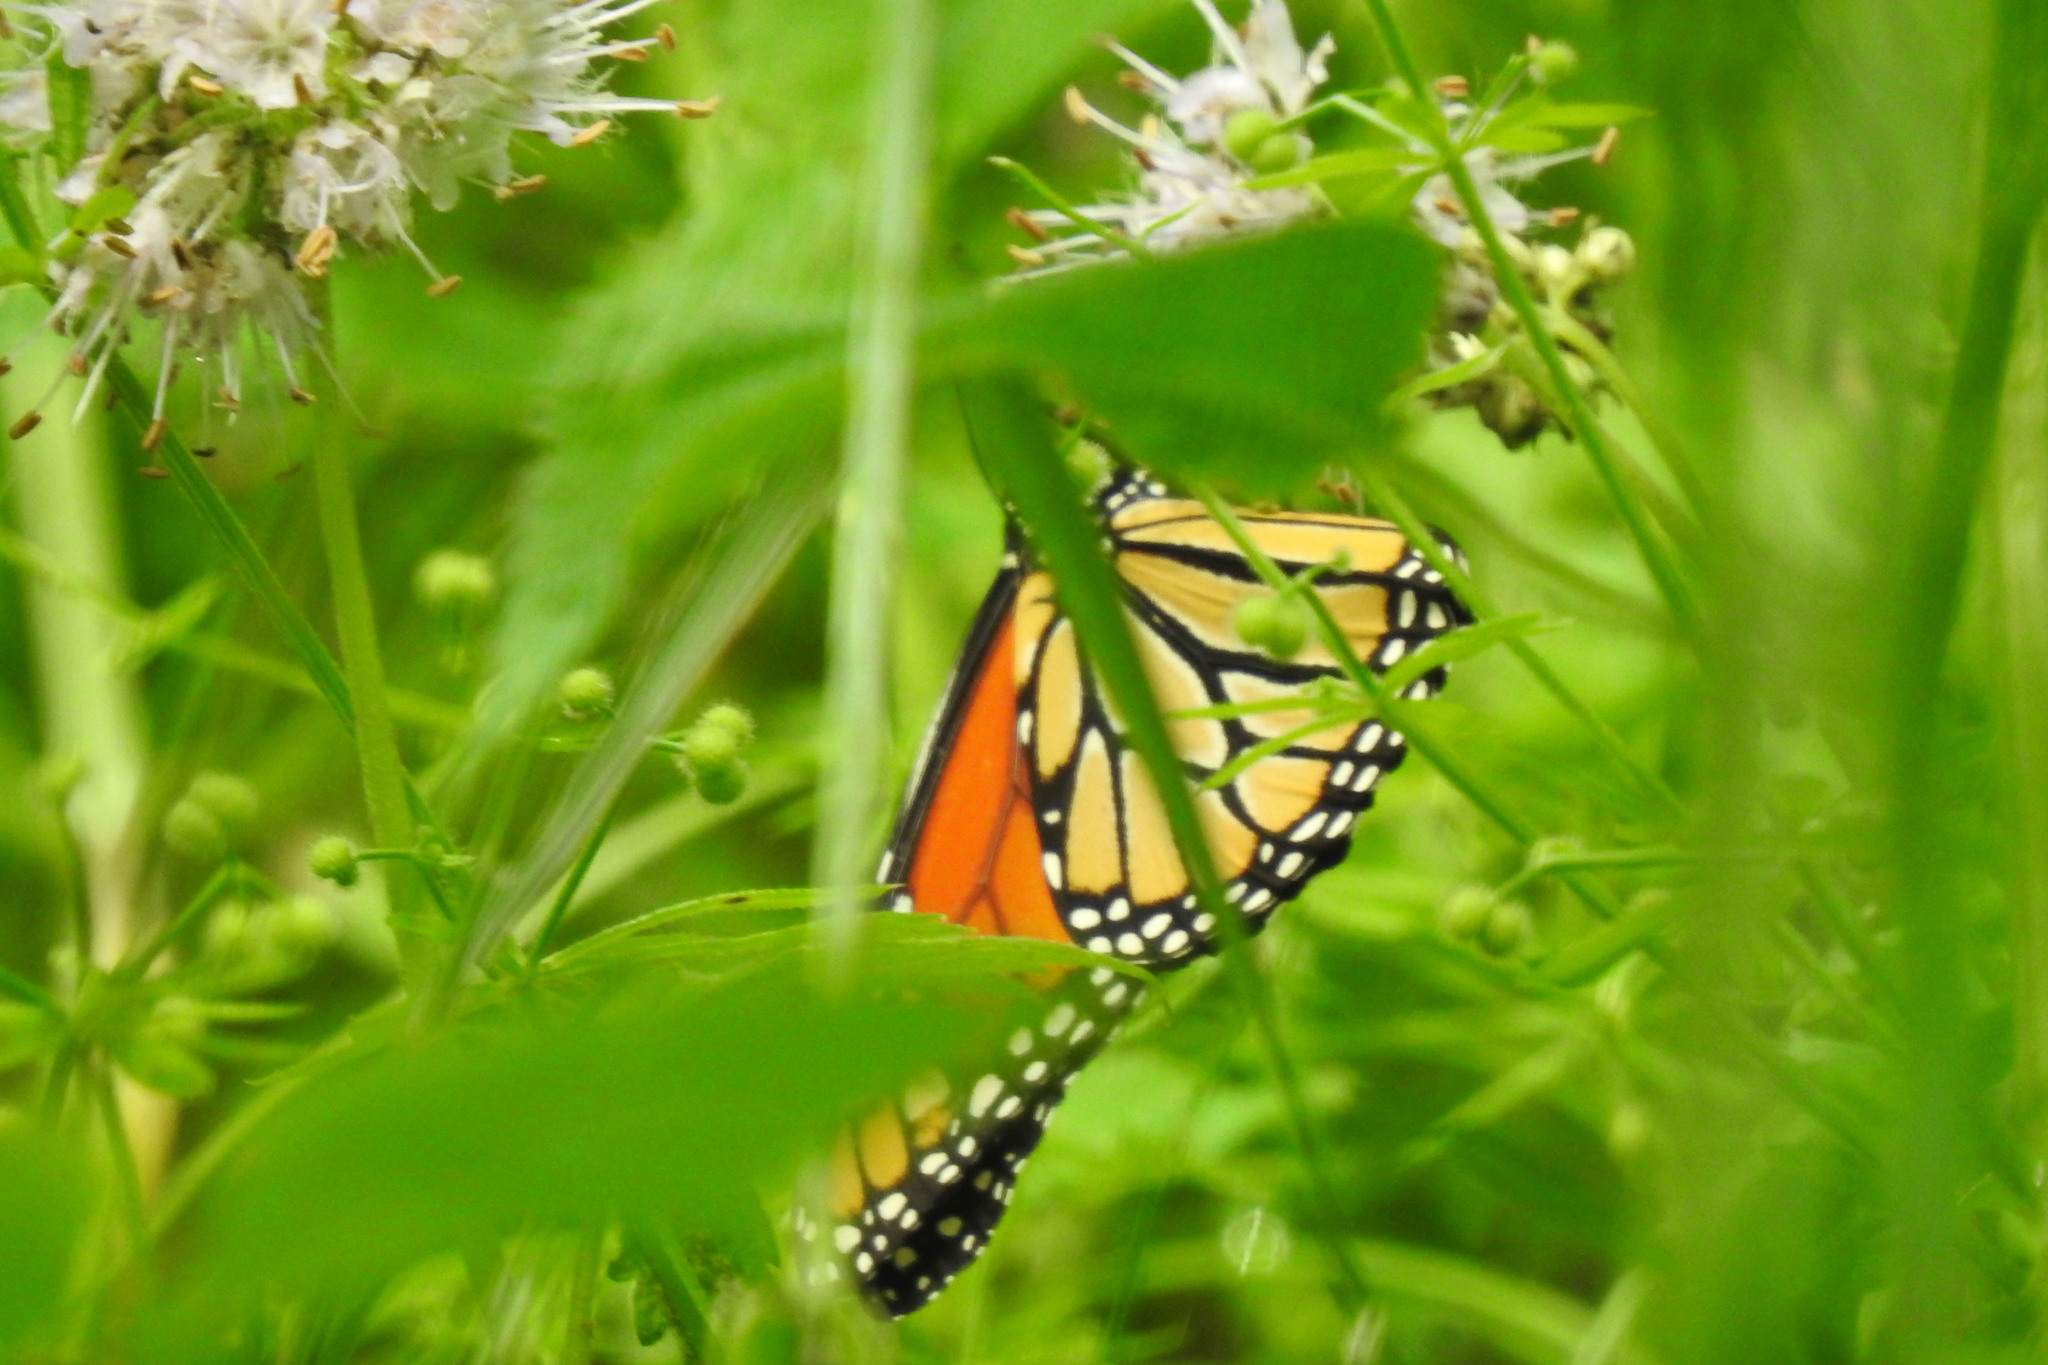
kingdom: Animalia
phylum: Arthropoda
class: Insecta
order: Lepidoptera
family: Nymphalidae
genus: Danaus
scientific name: Danaus plexippus
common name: Monarch
